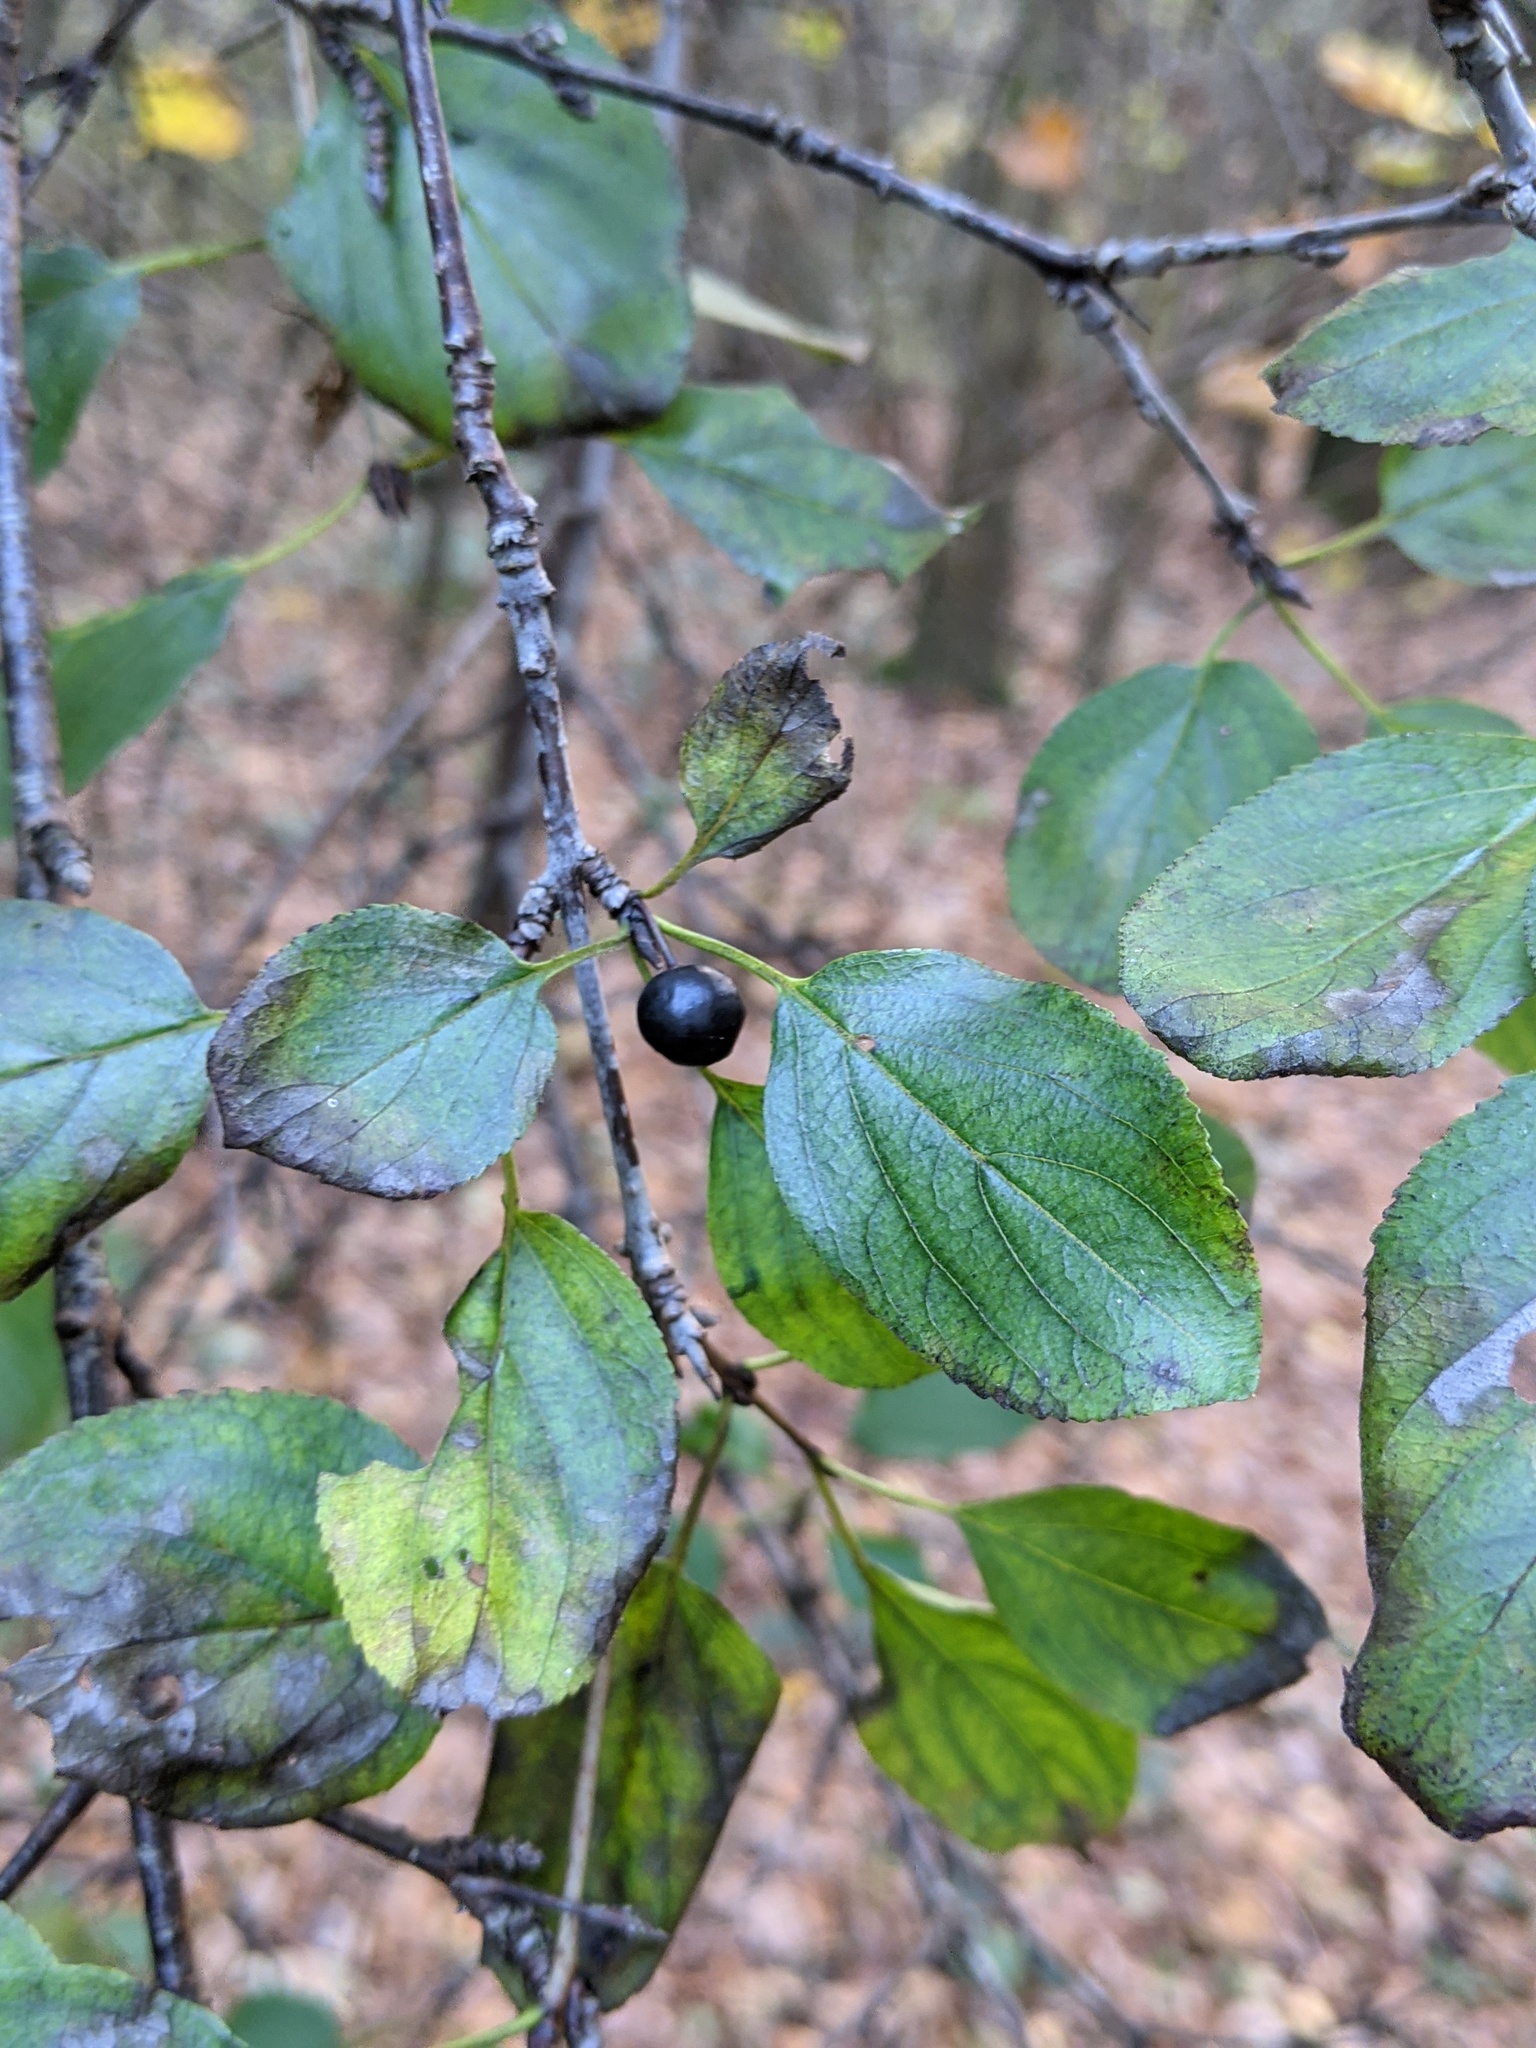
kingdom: Plantae
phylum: Tracheophyta
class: Magnoliopsida
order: Rosales
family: Rhamnaceae
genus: Rhamnus
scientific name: Rhamnus cathartica
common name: Common buckthorn
